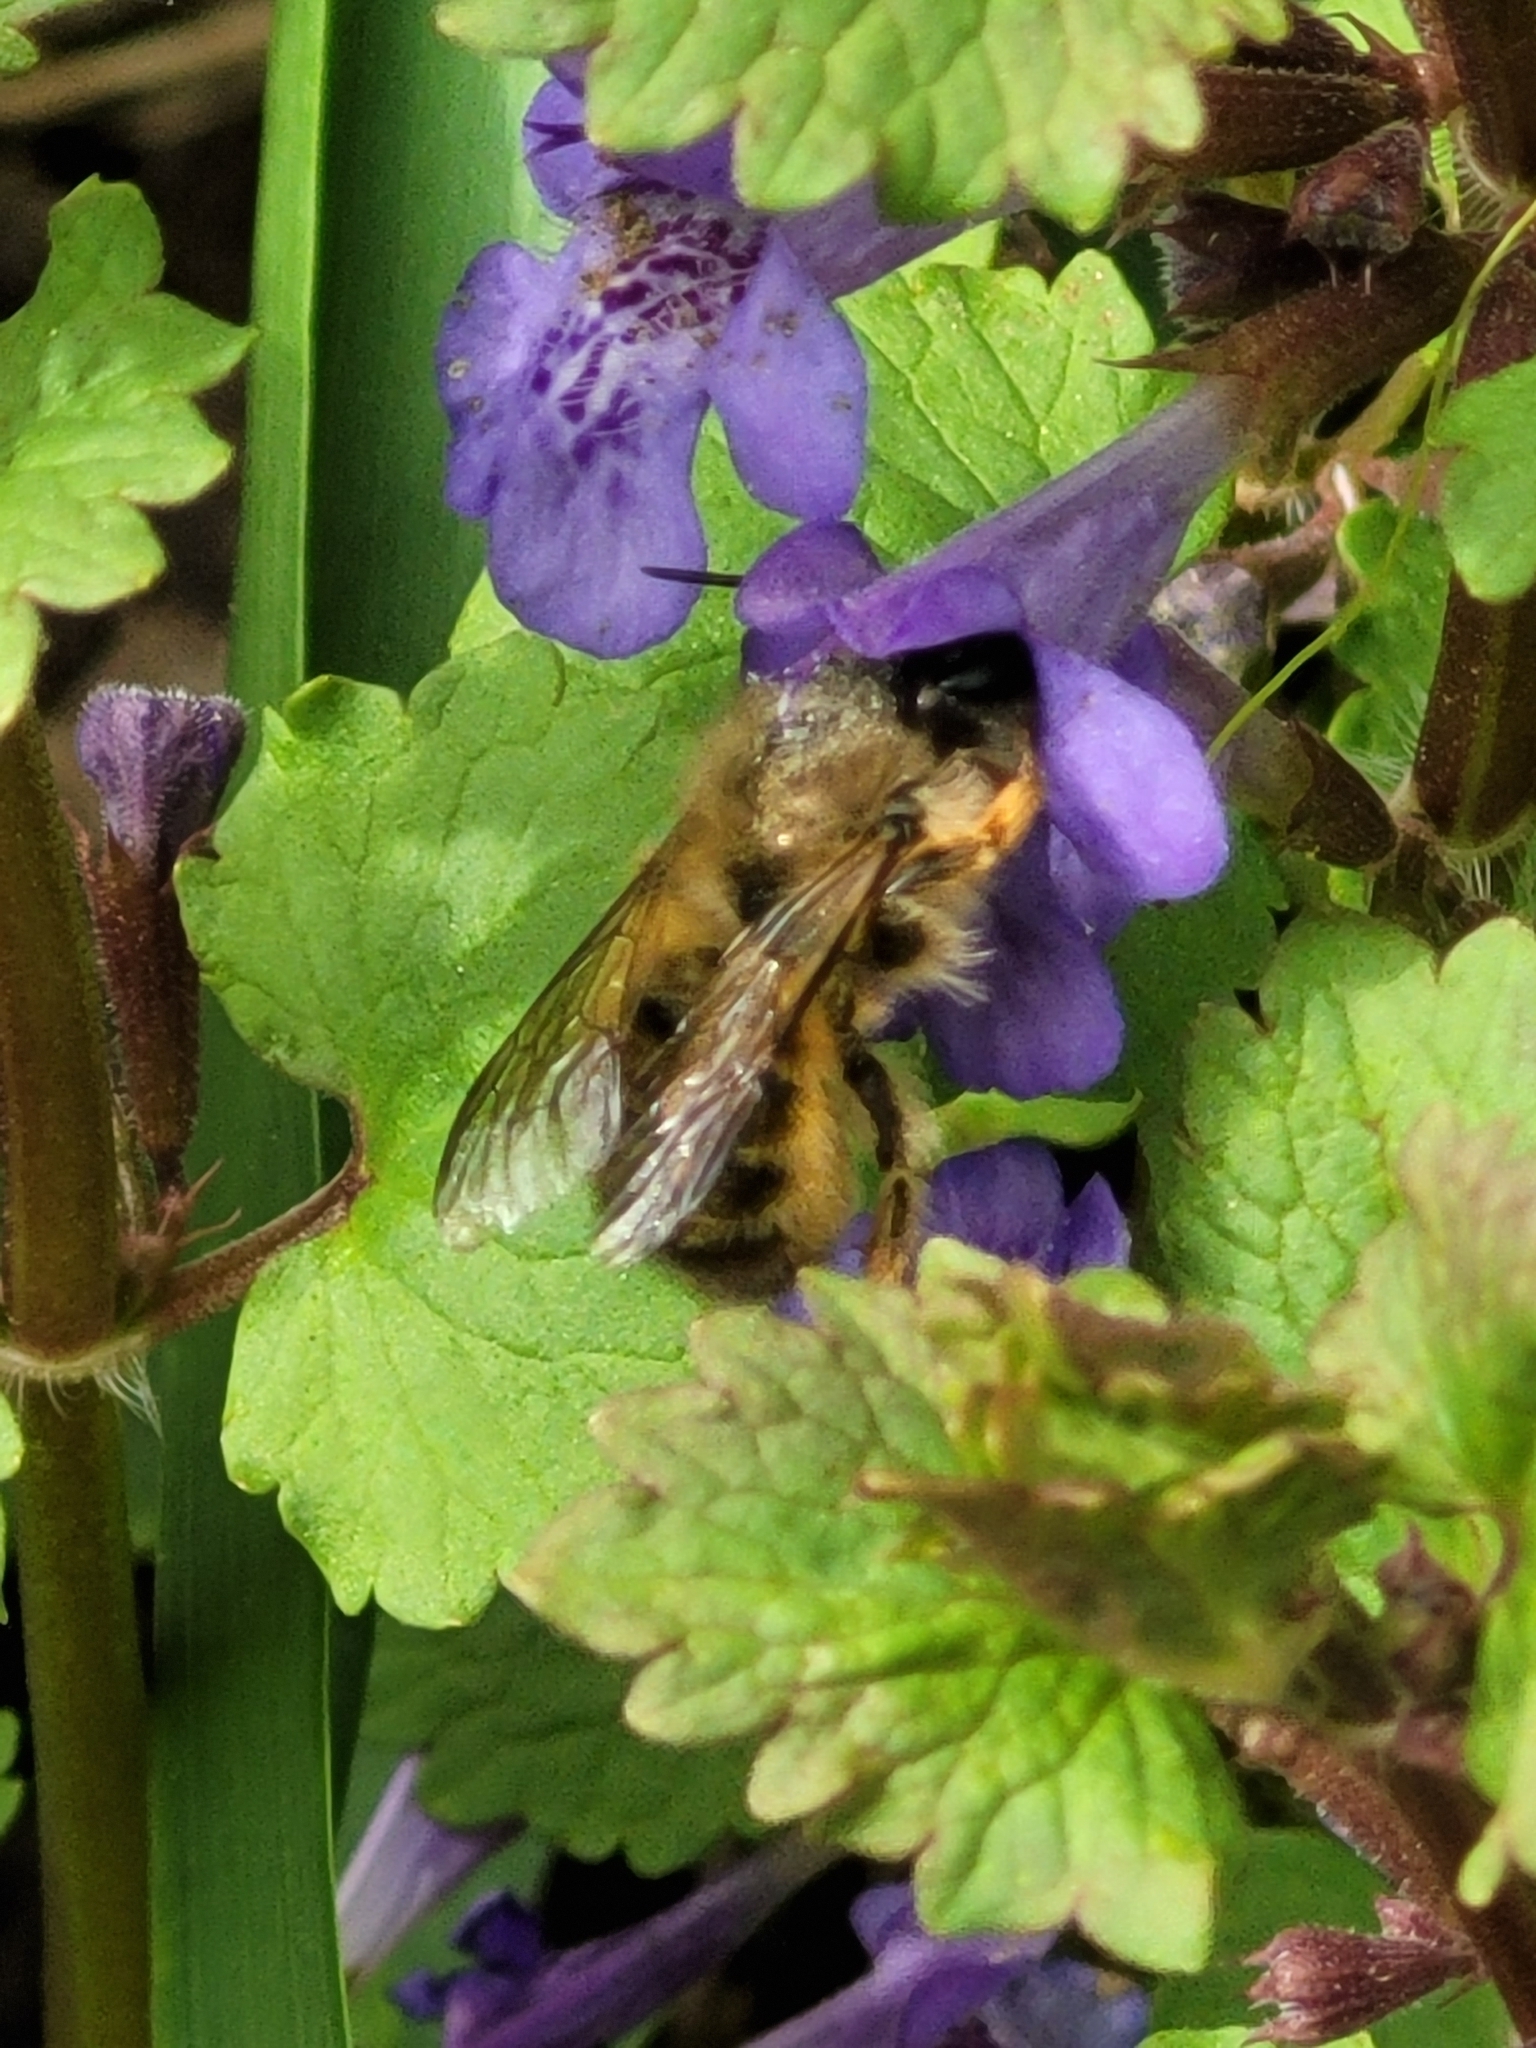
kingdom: Animalia
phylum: Arthropoda
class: Insecta
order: Hymenoptera
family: Megachilidae
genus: Osmia
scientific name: Osmia taurus
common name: Taurus mason bee
